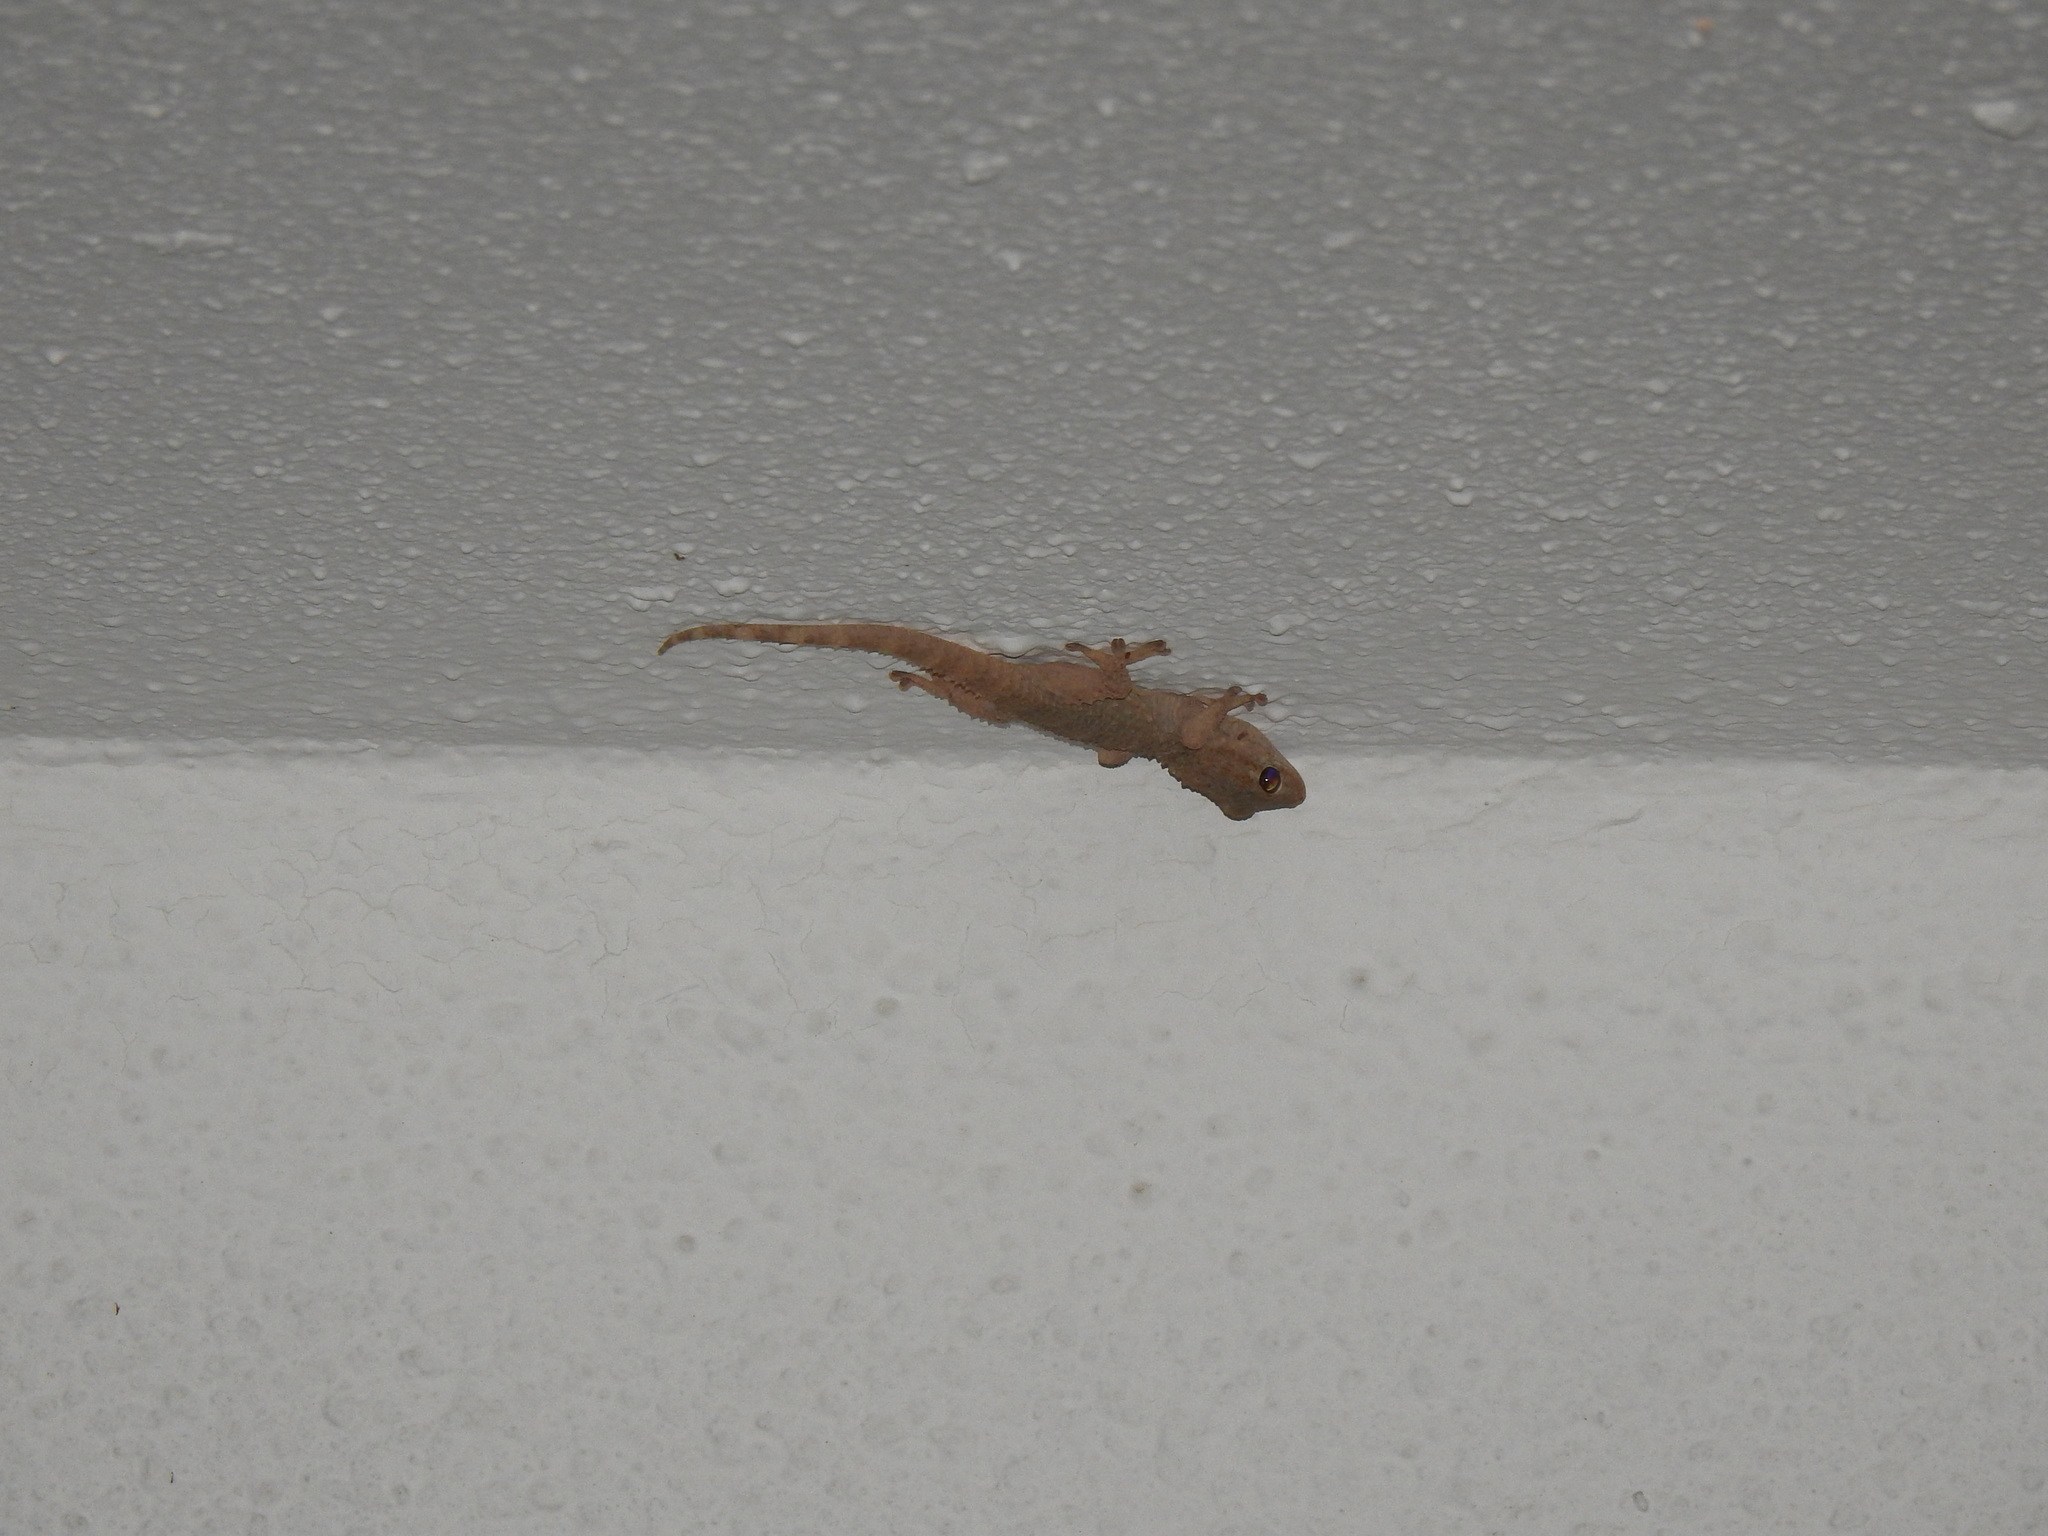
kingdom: Animalia
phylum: Chordata
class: Squamata
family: Phyllodactylidae
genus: Tarentola
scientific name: Tarentola mauritanica
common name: Moorish gecko
